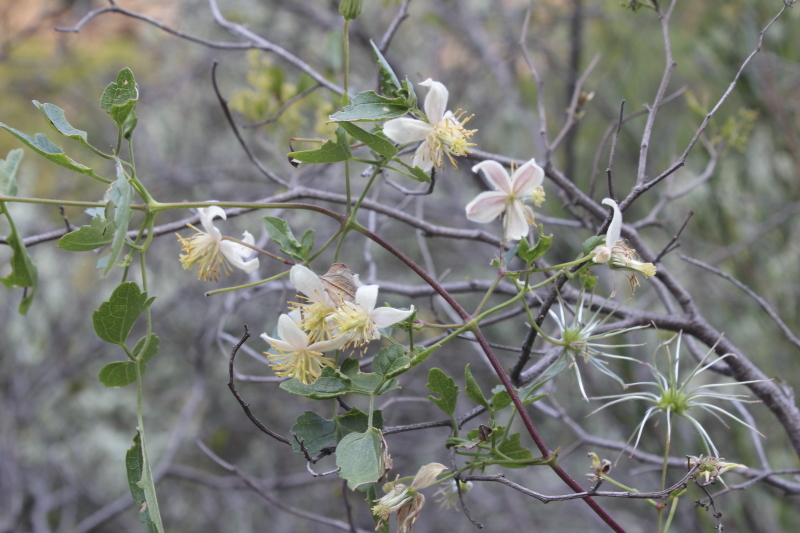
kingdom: Plantae
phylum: Tracheophyta
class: Magnoliopsida
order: Ranunculales
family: Ranunculaceae
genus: Clematis
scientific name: Clematis brachiata
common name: Traveler's-joy
